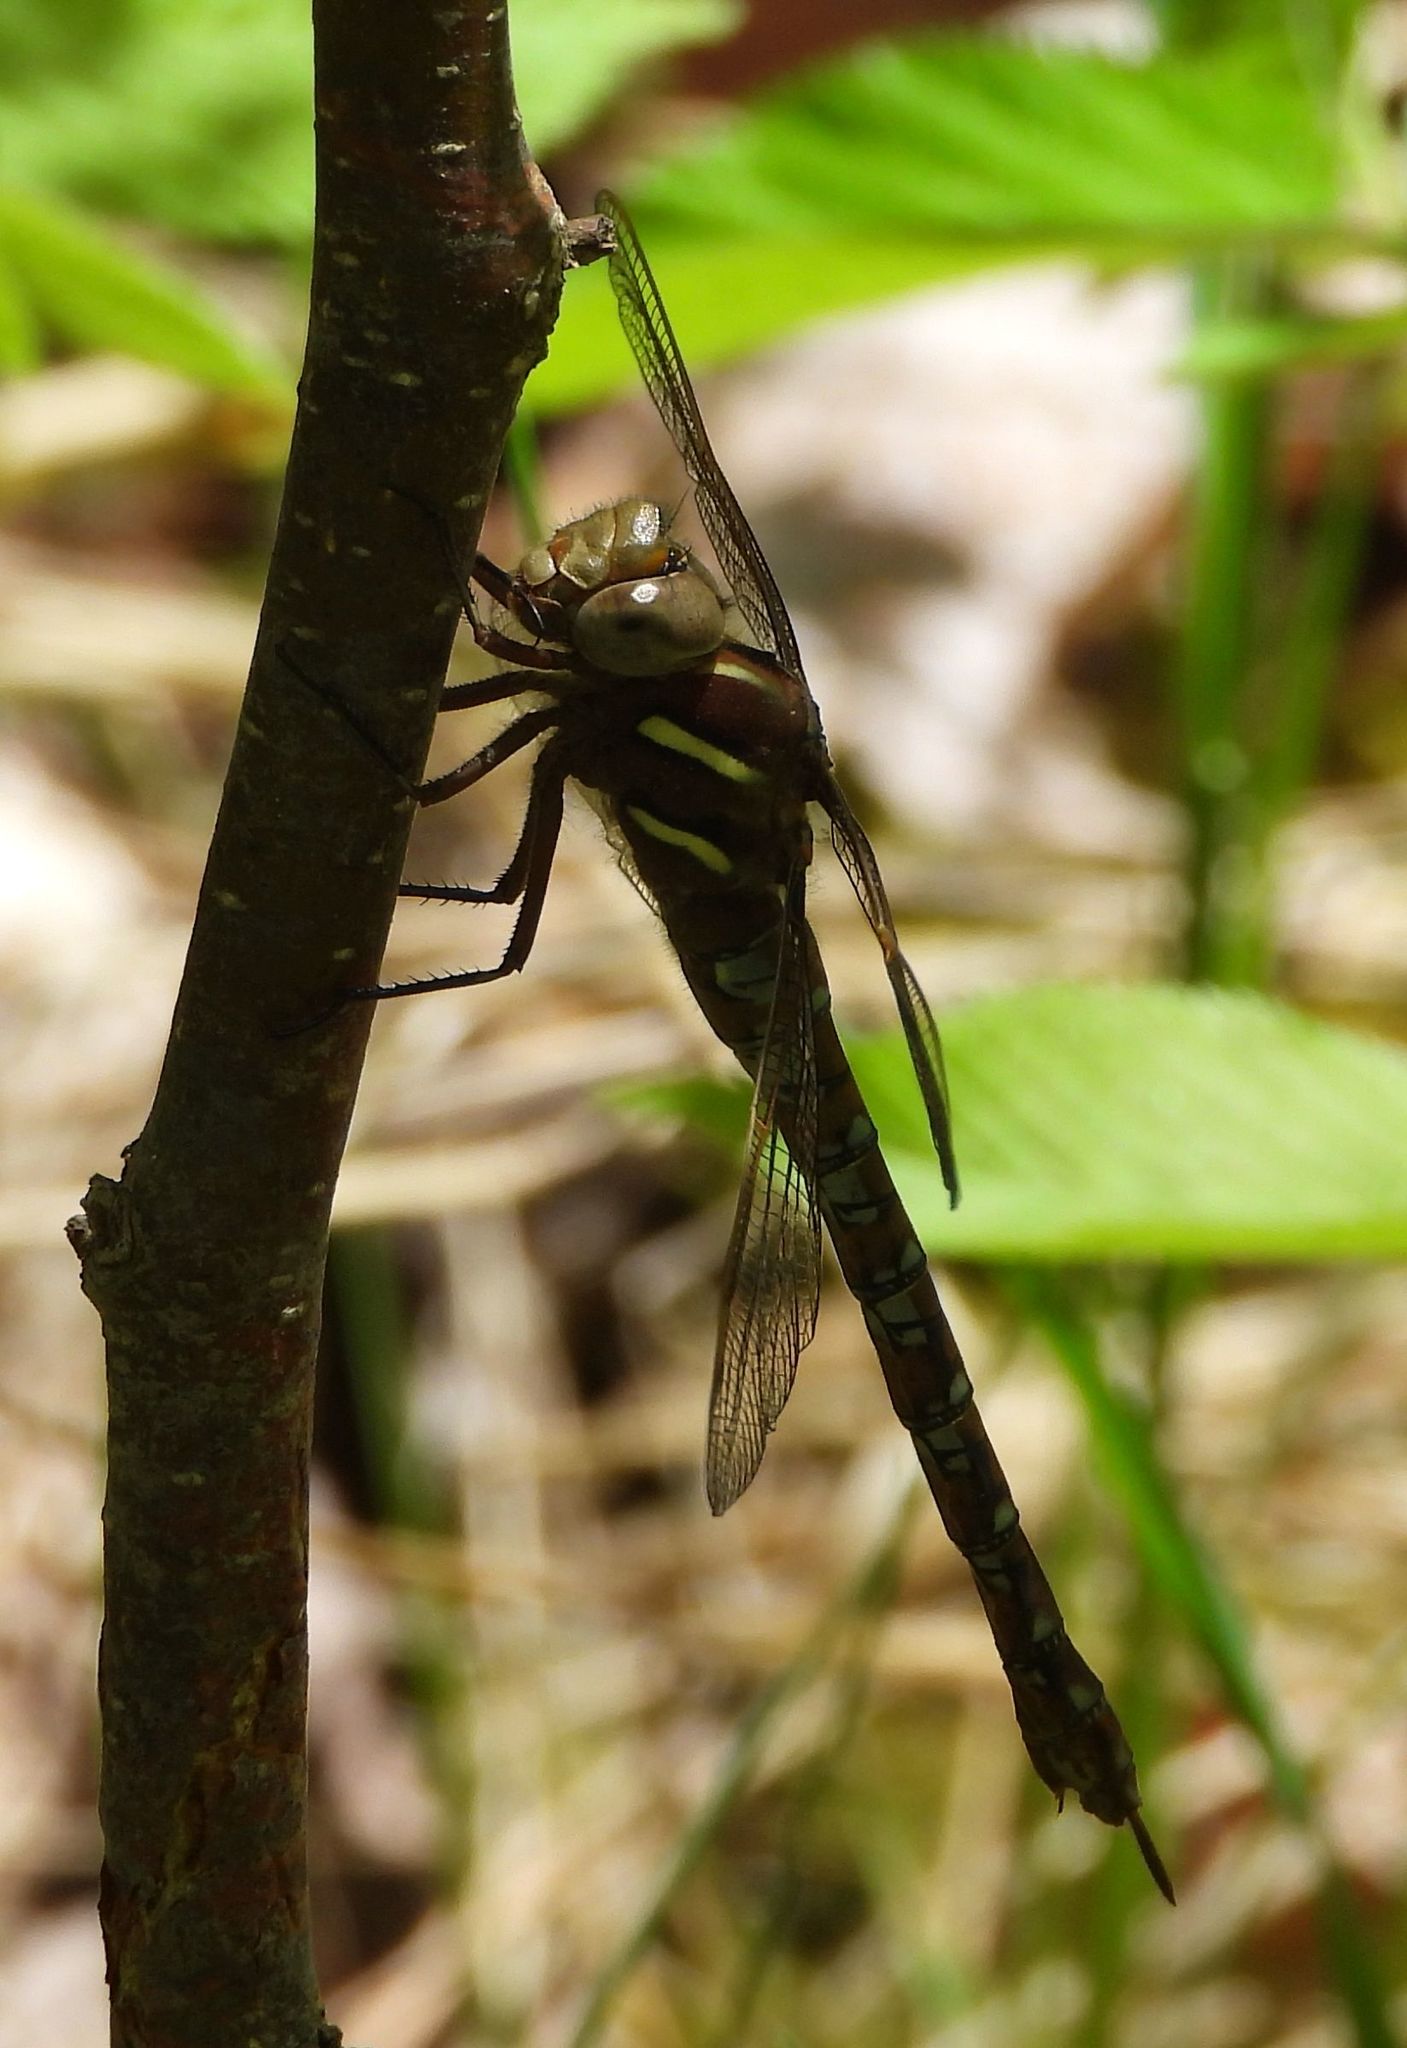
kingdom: Animalia
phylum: Arthropoda
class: Insecta
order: Odonata
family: Aeshnidae
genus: Basiaeschna
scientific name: Basiaeschna janata
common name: Springtime darner
